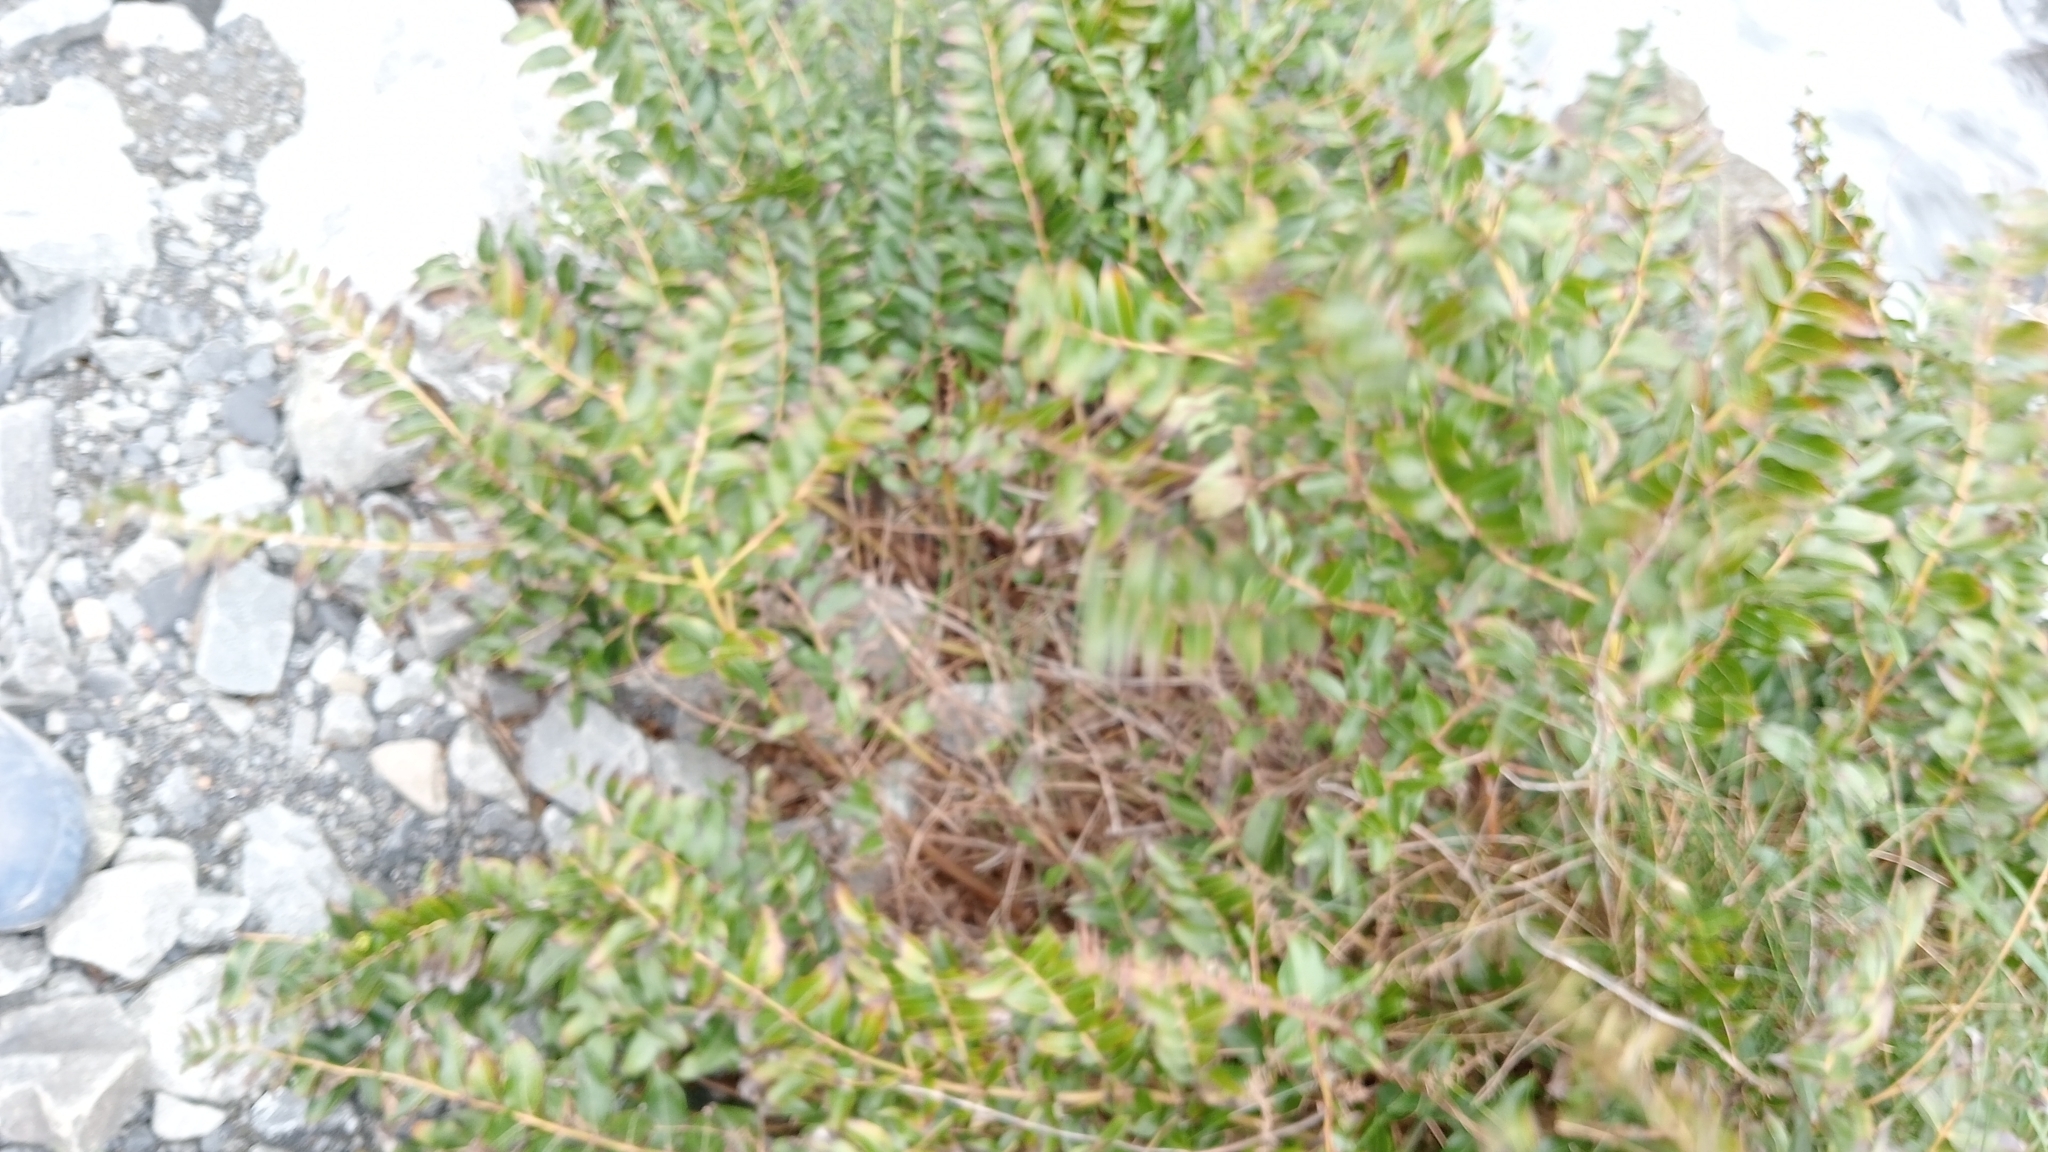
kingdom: Plantae
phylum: Tracheophyta
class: Magnoliopsida
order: Cucurbitales
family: Coriariaceae
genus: Coriaria
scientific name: Coriaria sarmentosa
